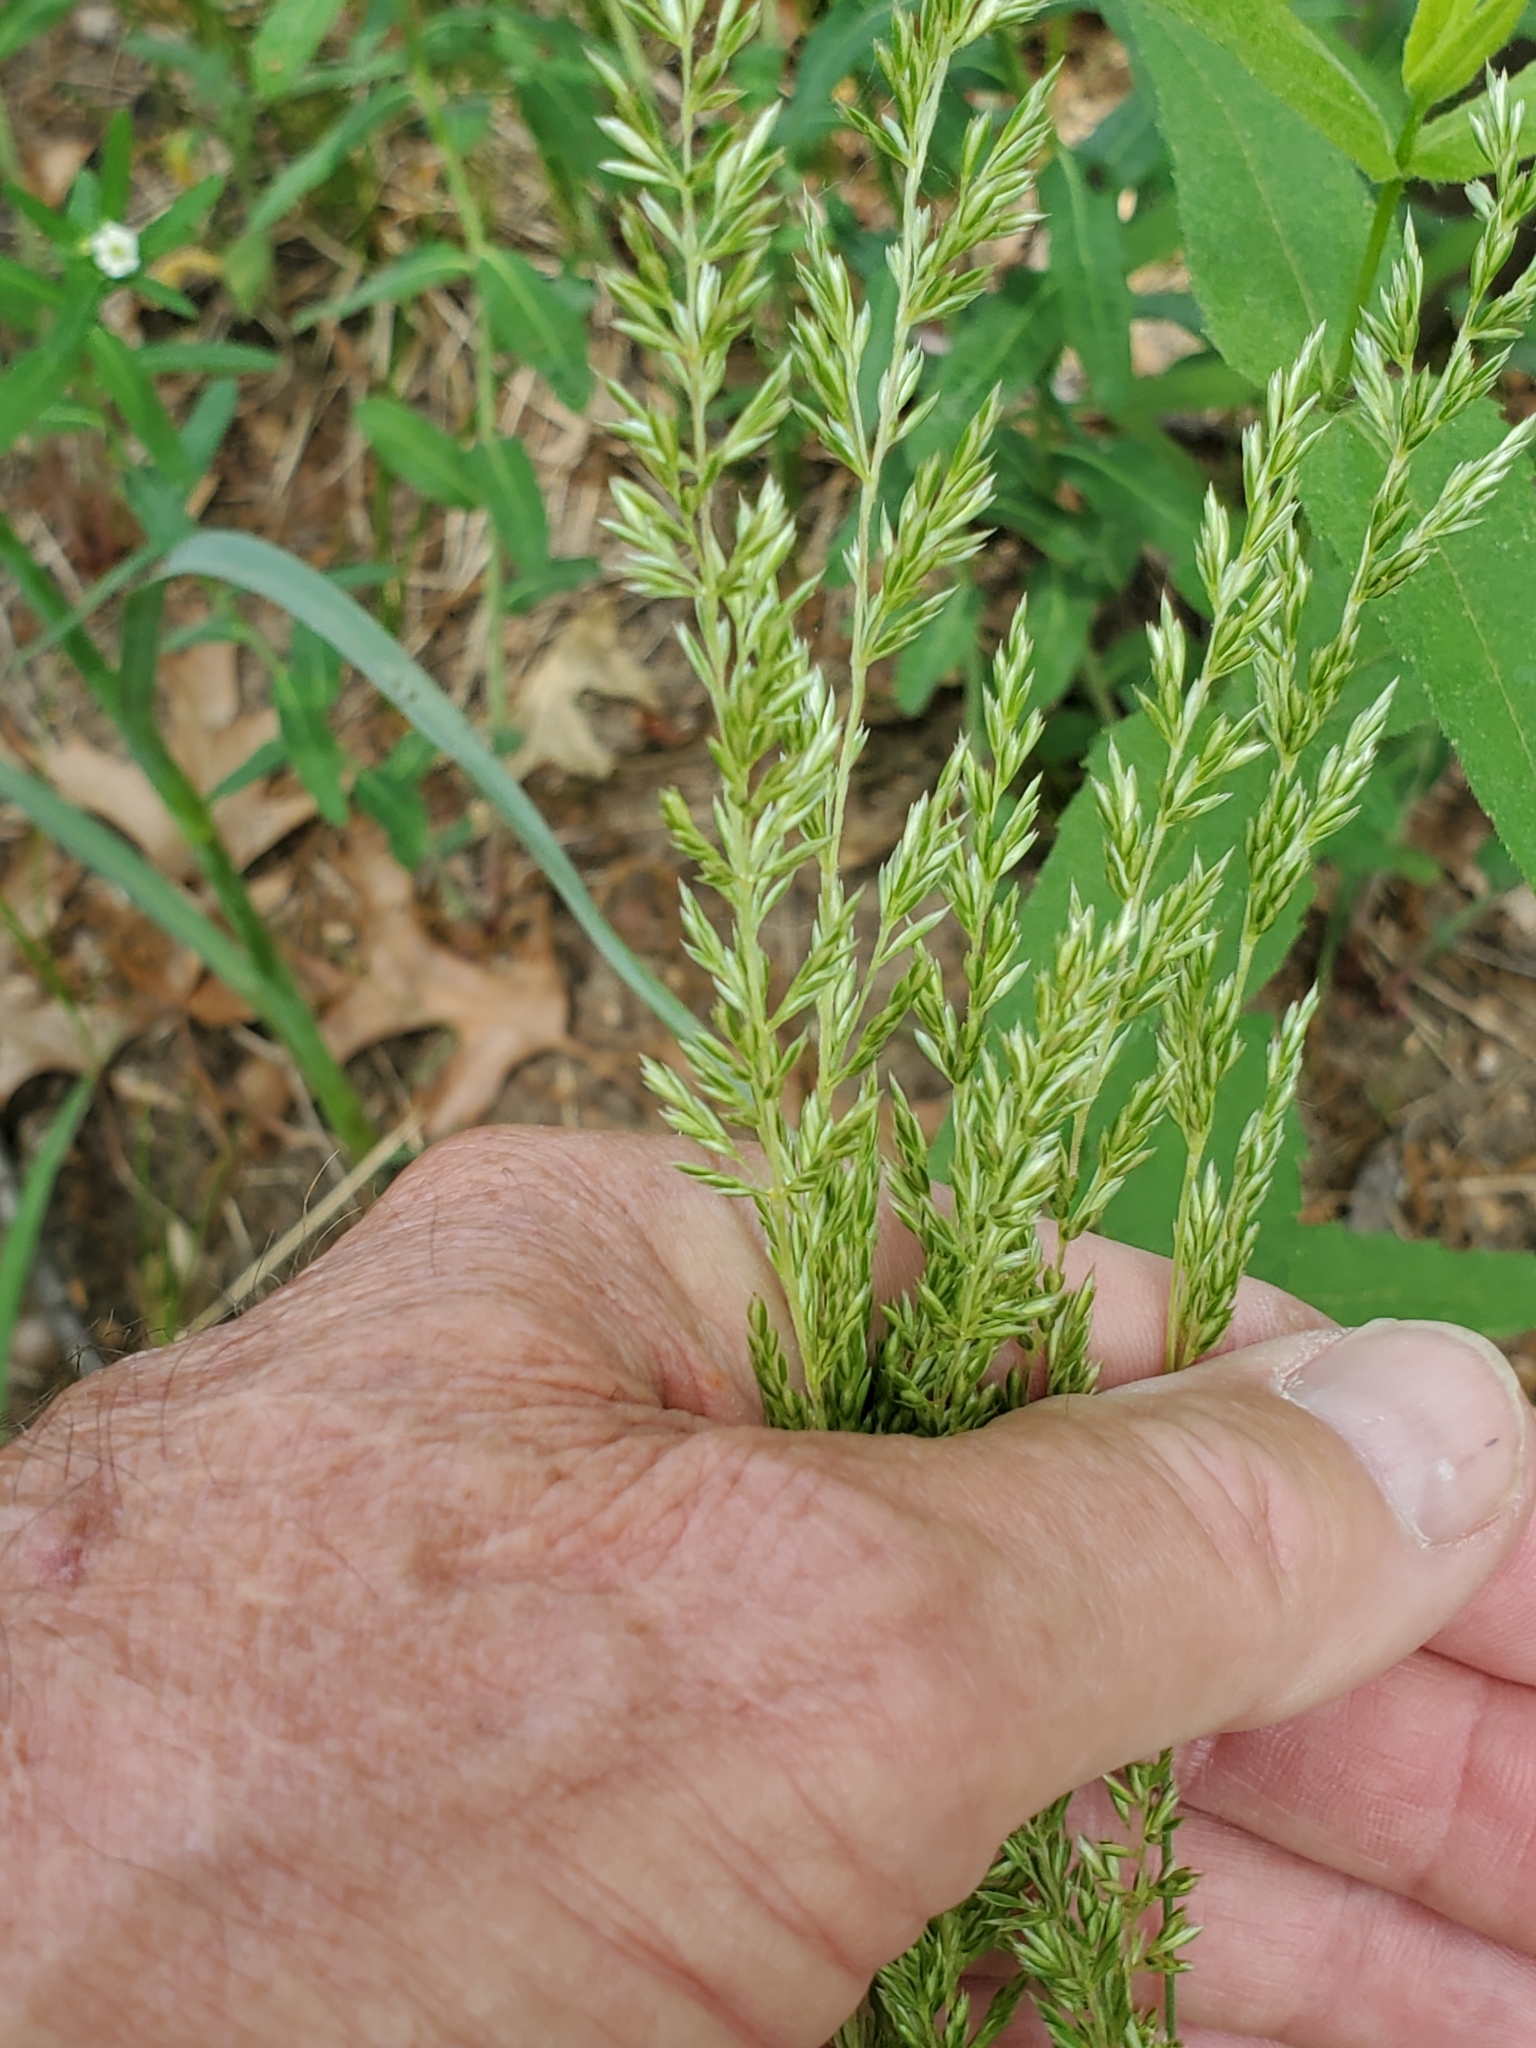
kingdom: Plantae
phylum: Tracheophyta
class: Liliopsida
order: Poales
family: Poaceae
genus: Koeleria
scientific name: Koeleria macrantha
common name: Crested hair-grass
